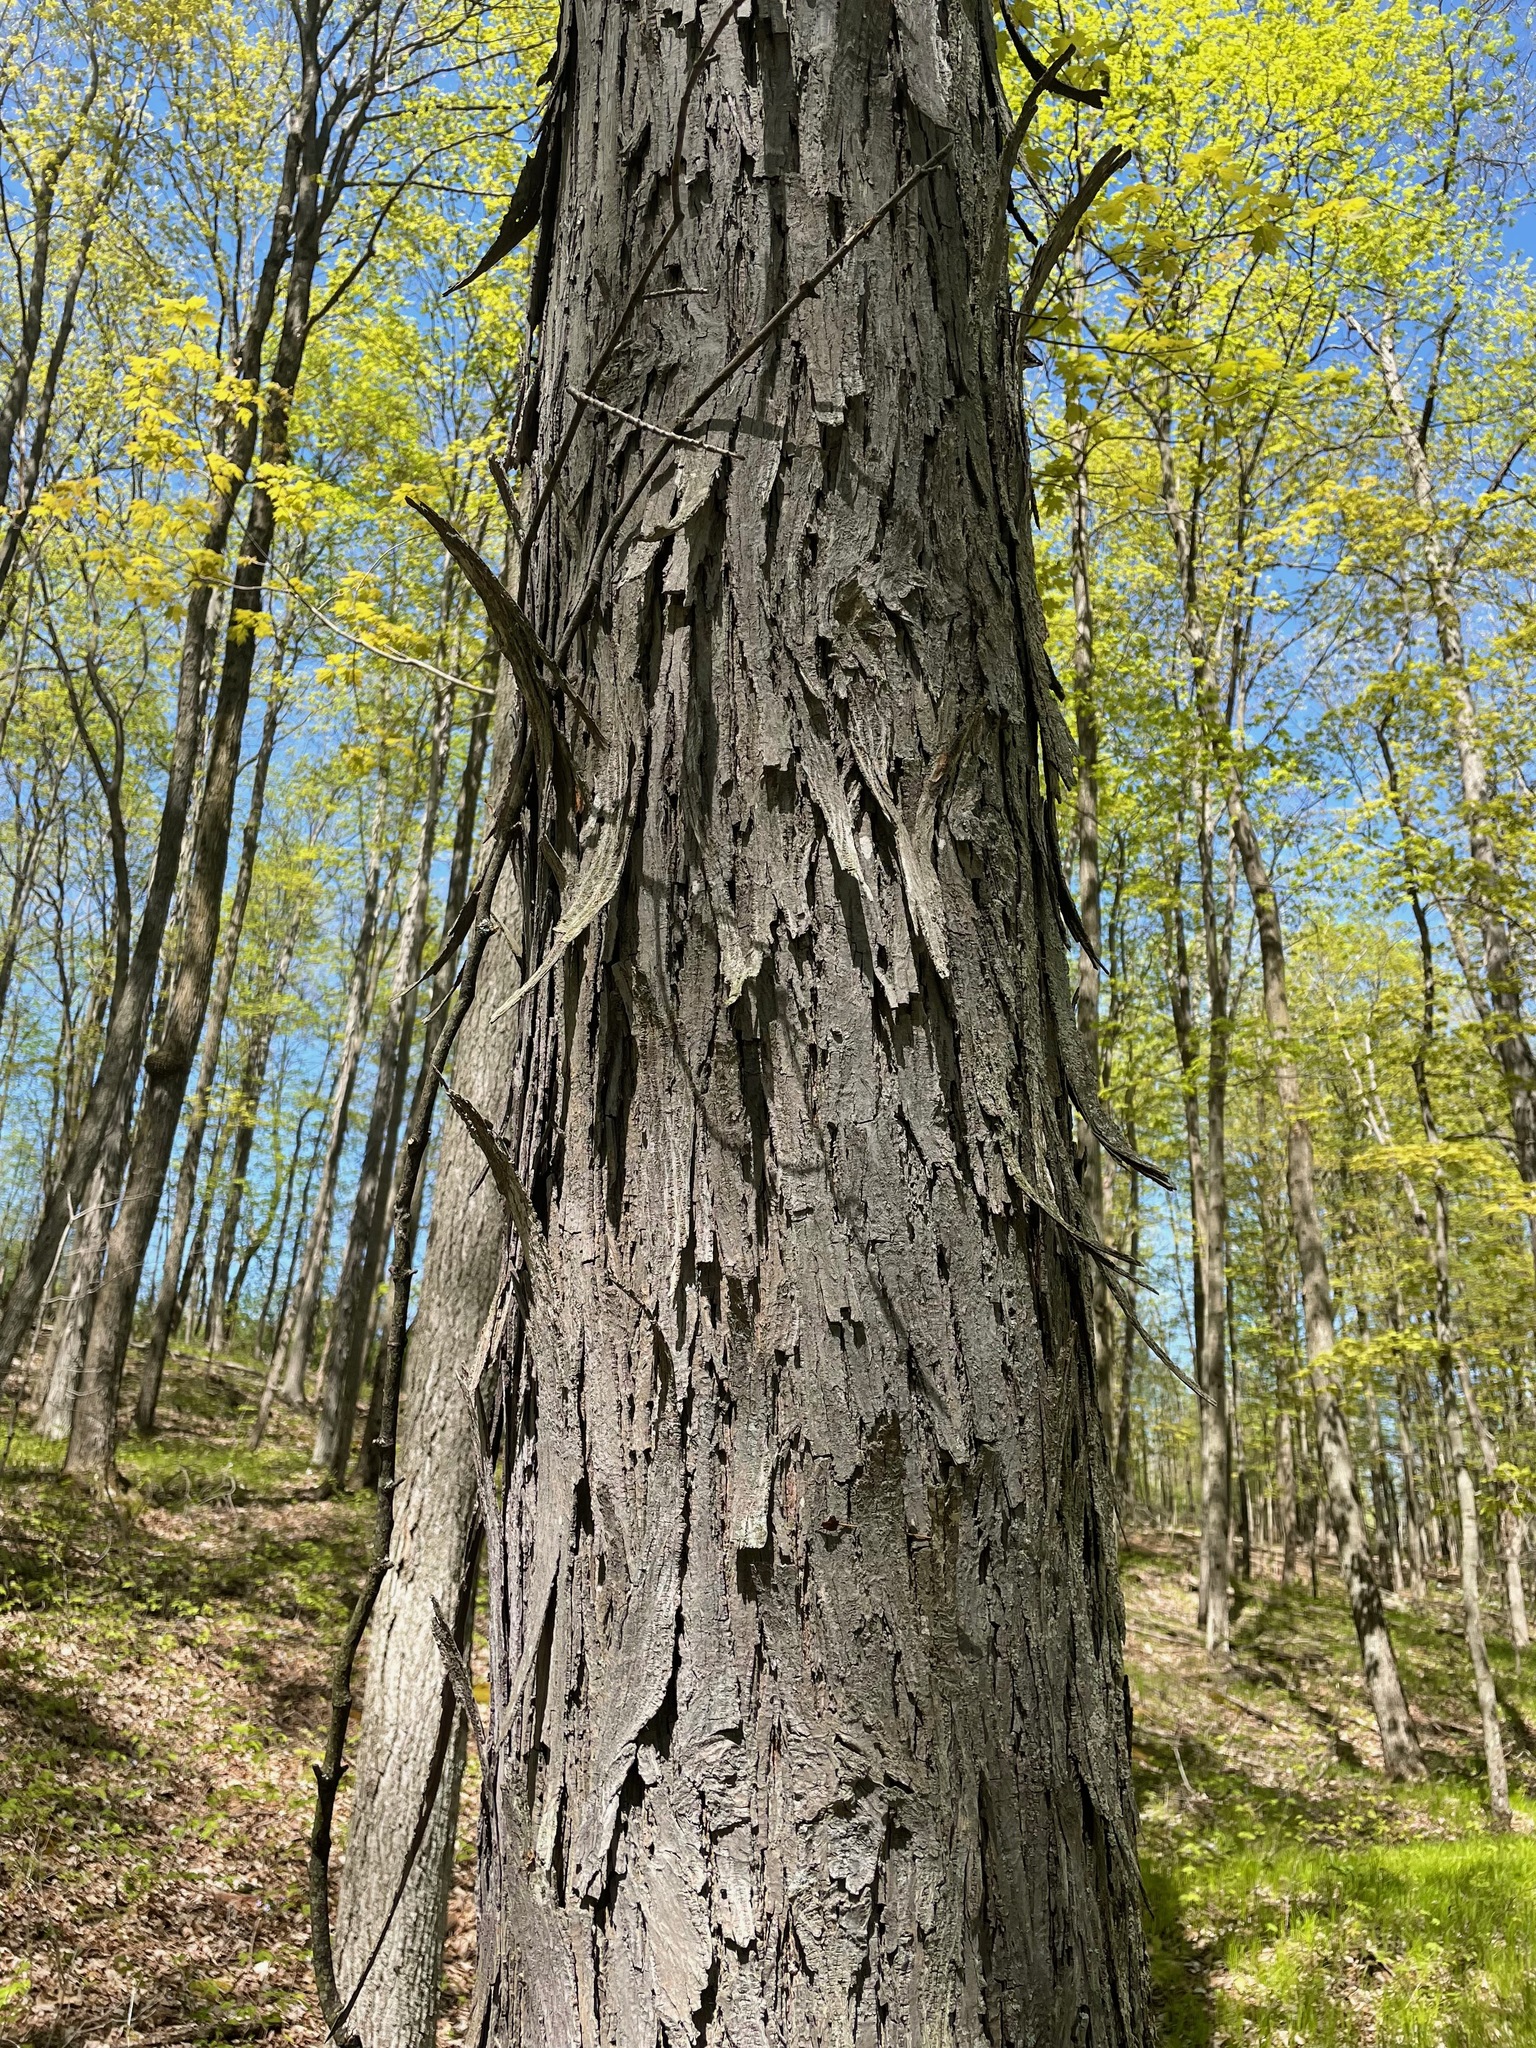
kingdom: Plantae
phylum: Tracheophyta
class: Magnoliopsida
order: Fagales
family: Juglandaceae
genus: Carya
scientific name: Carya ovata
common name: Shagbark hickory
